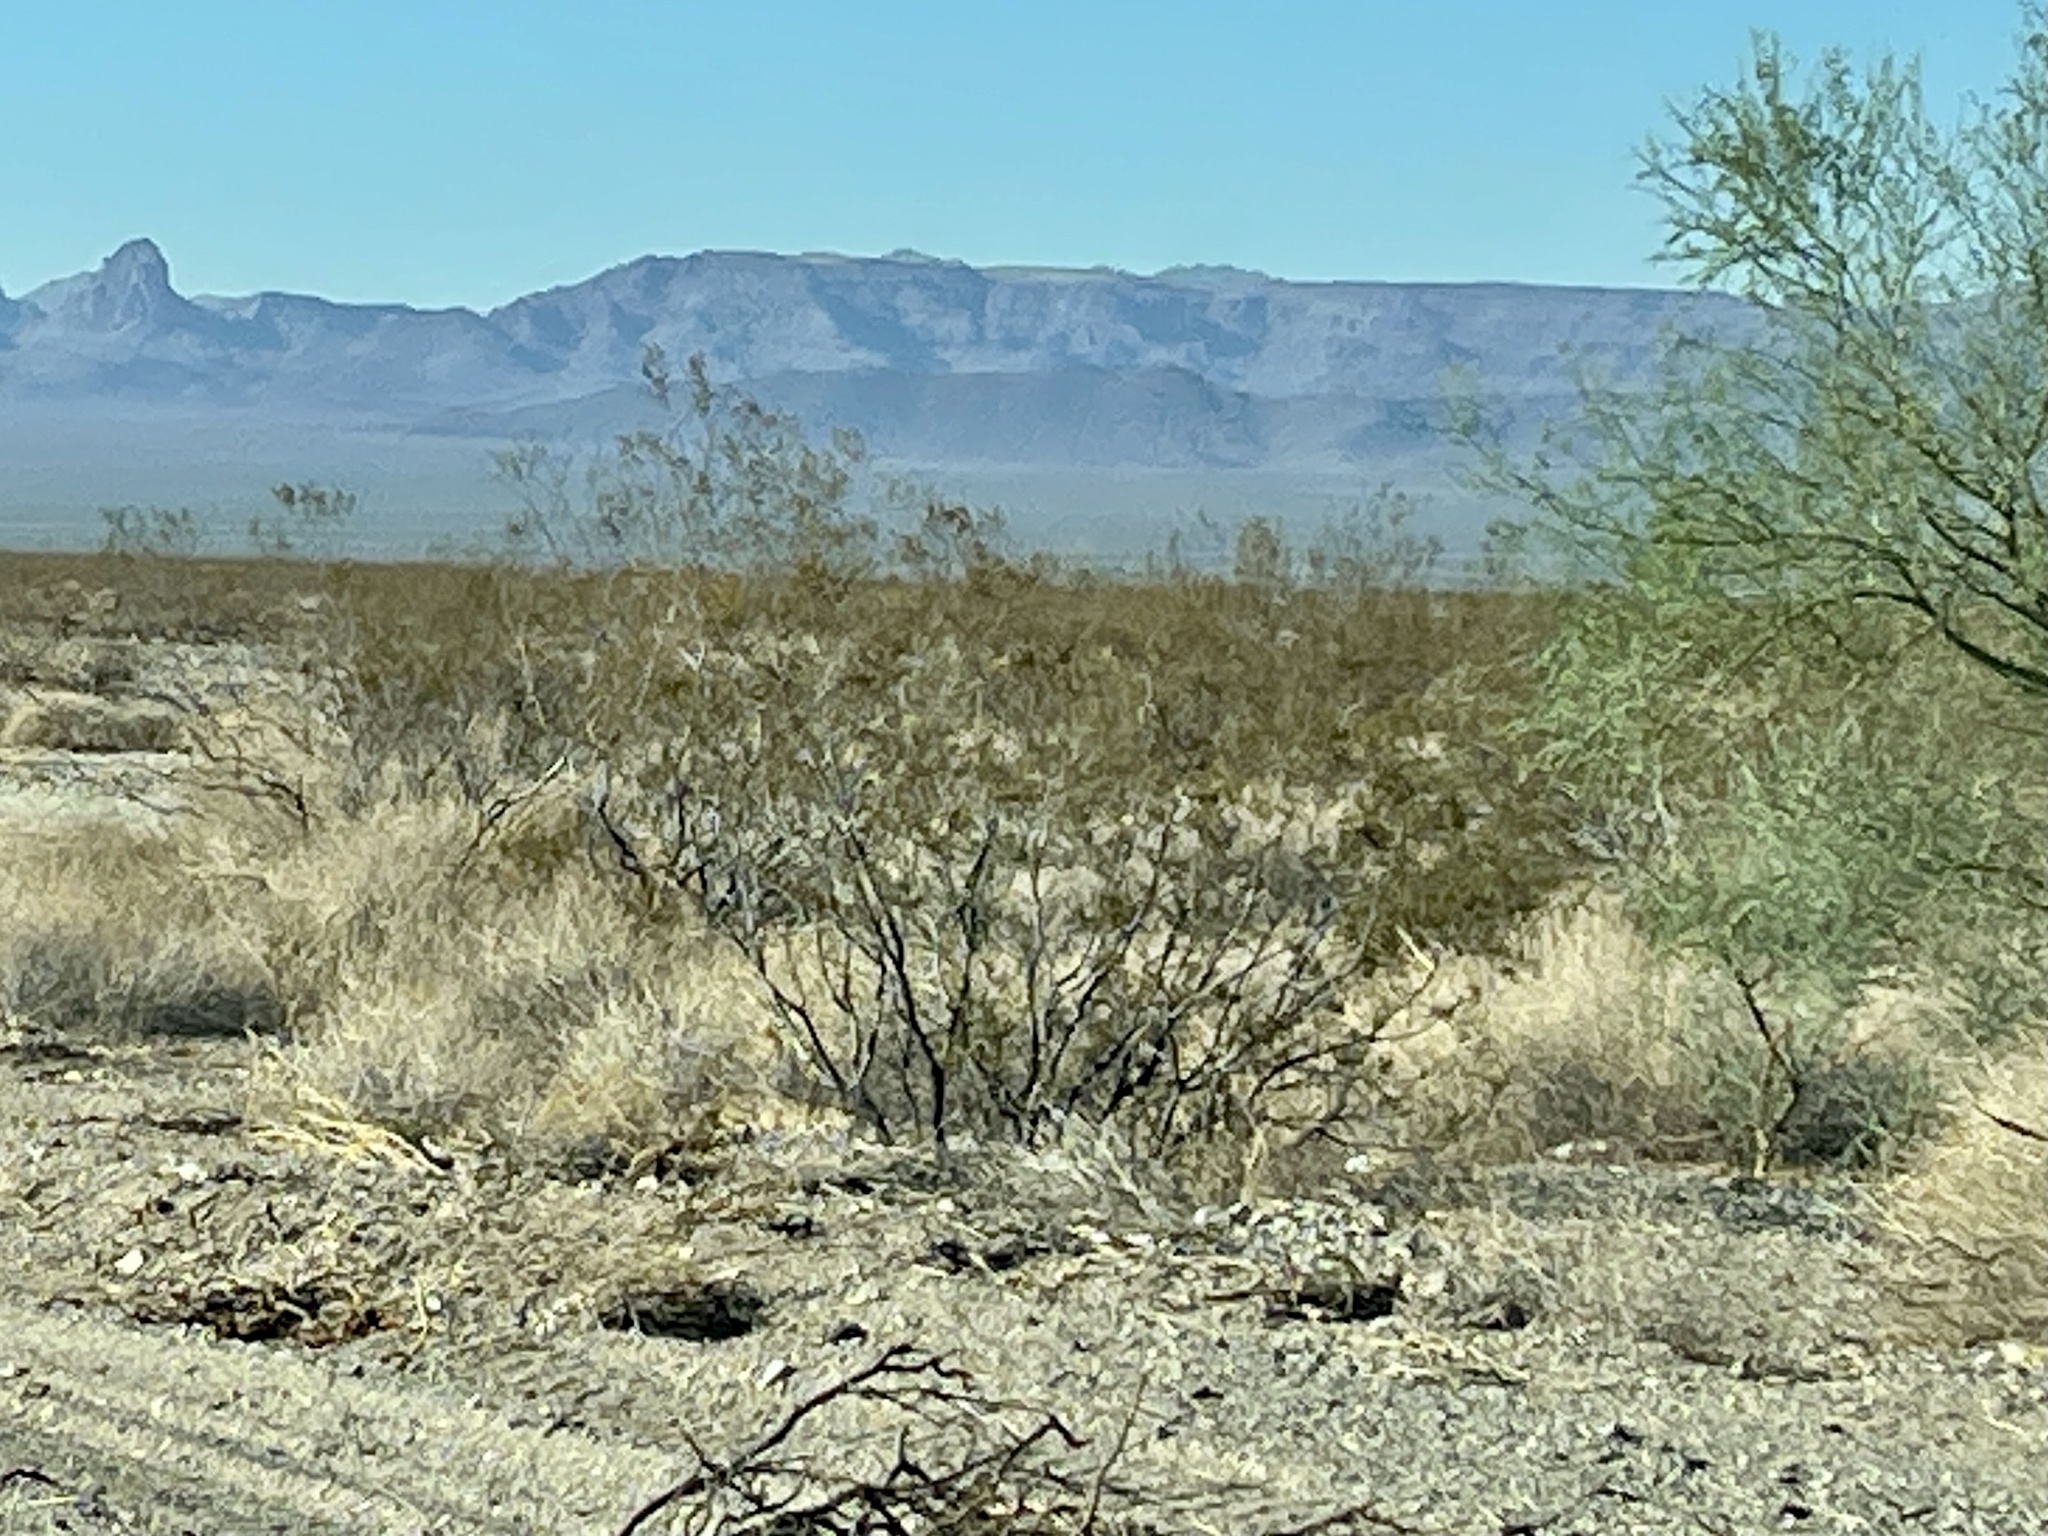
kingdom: Plantae
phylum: Tracheophyta
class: Magnoliopsida
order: Zygophyllales
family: Zygophyllaceae
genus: Larrea
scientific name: Larrea tridentata
